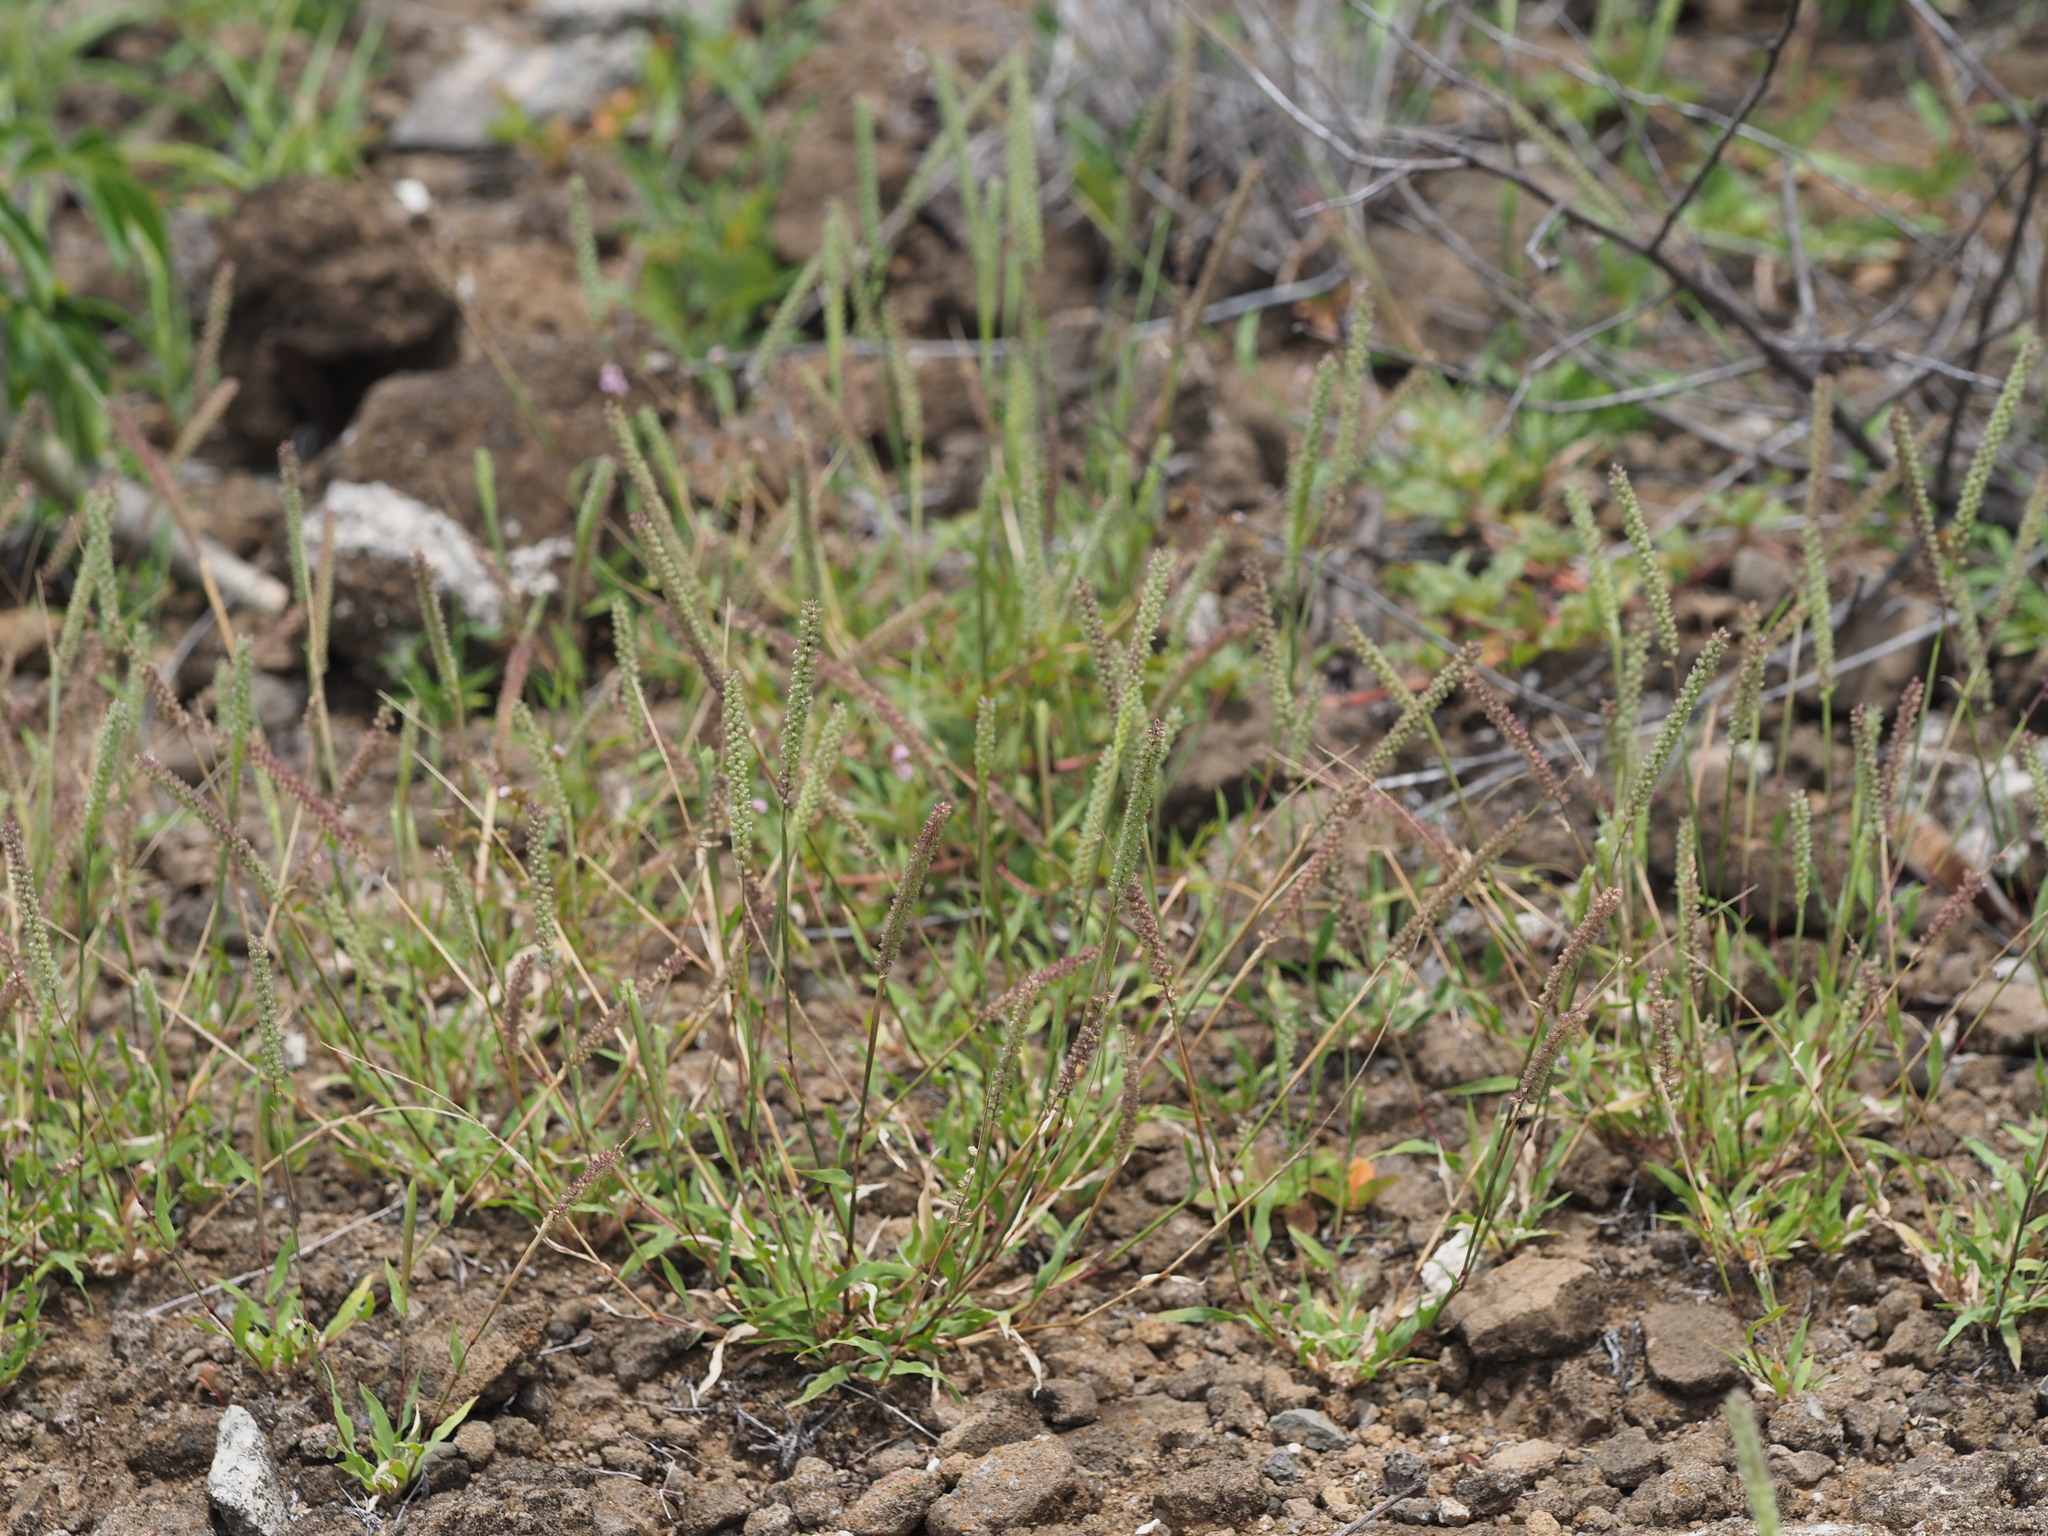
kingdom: Plantae
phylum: Tracheophyta
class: Liliopsida
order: Poales
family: Poaceae
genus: Tragus
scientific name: Tragus berteronianus
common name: African bur-grass
